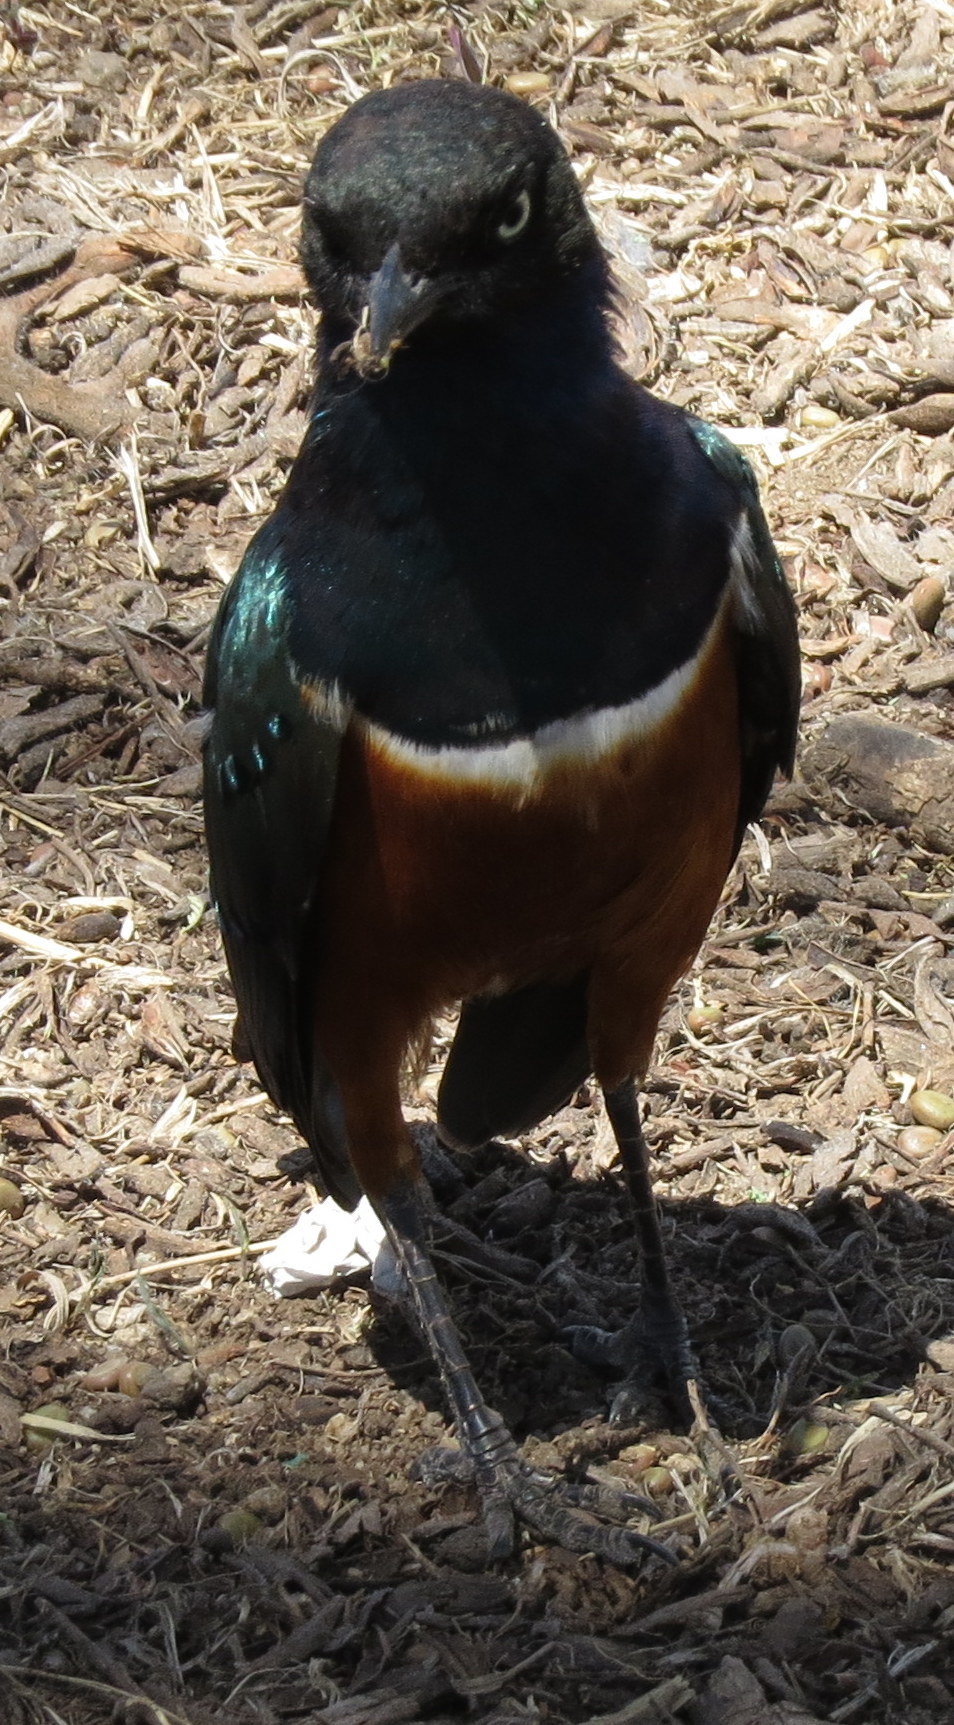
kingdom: Animalia
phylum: Chordata
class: Aves
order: Passeriformes
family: Sturnidae
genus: Lamprotornis
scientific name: Lamprotornis superbus
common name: Superb starling
